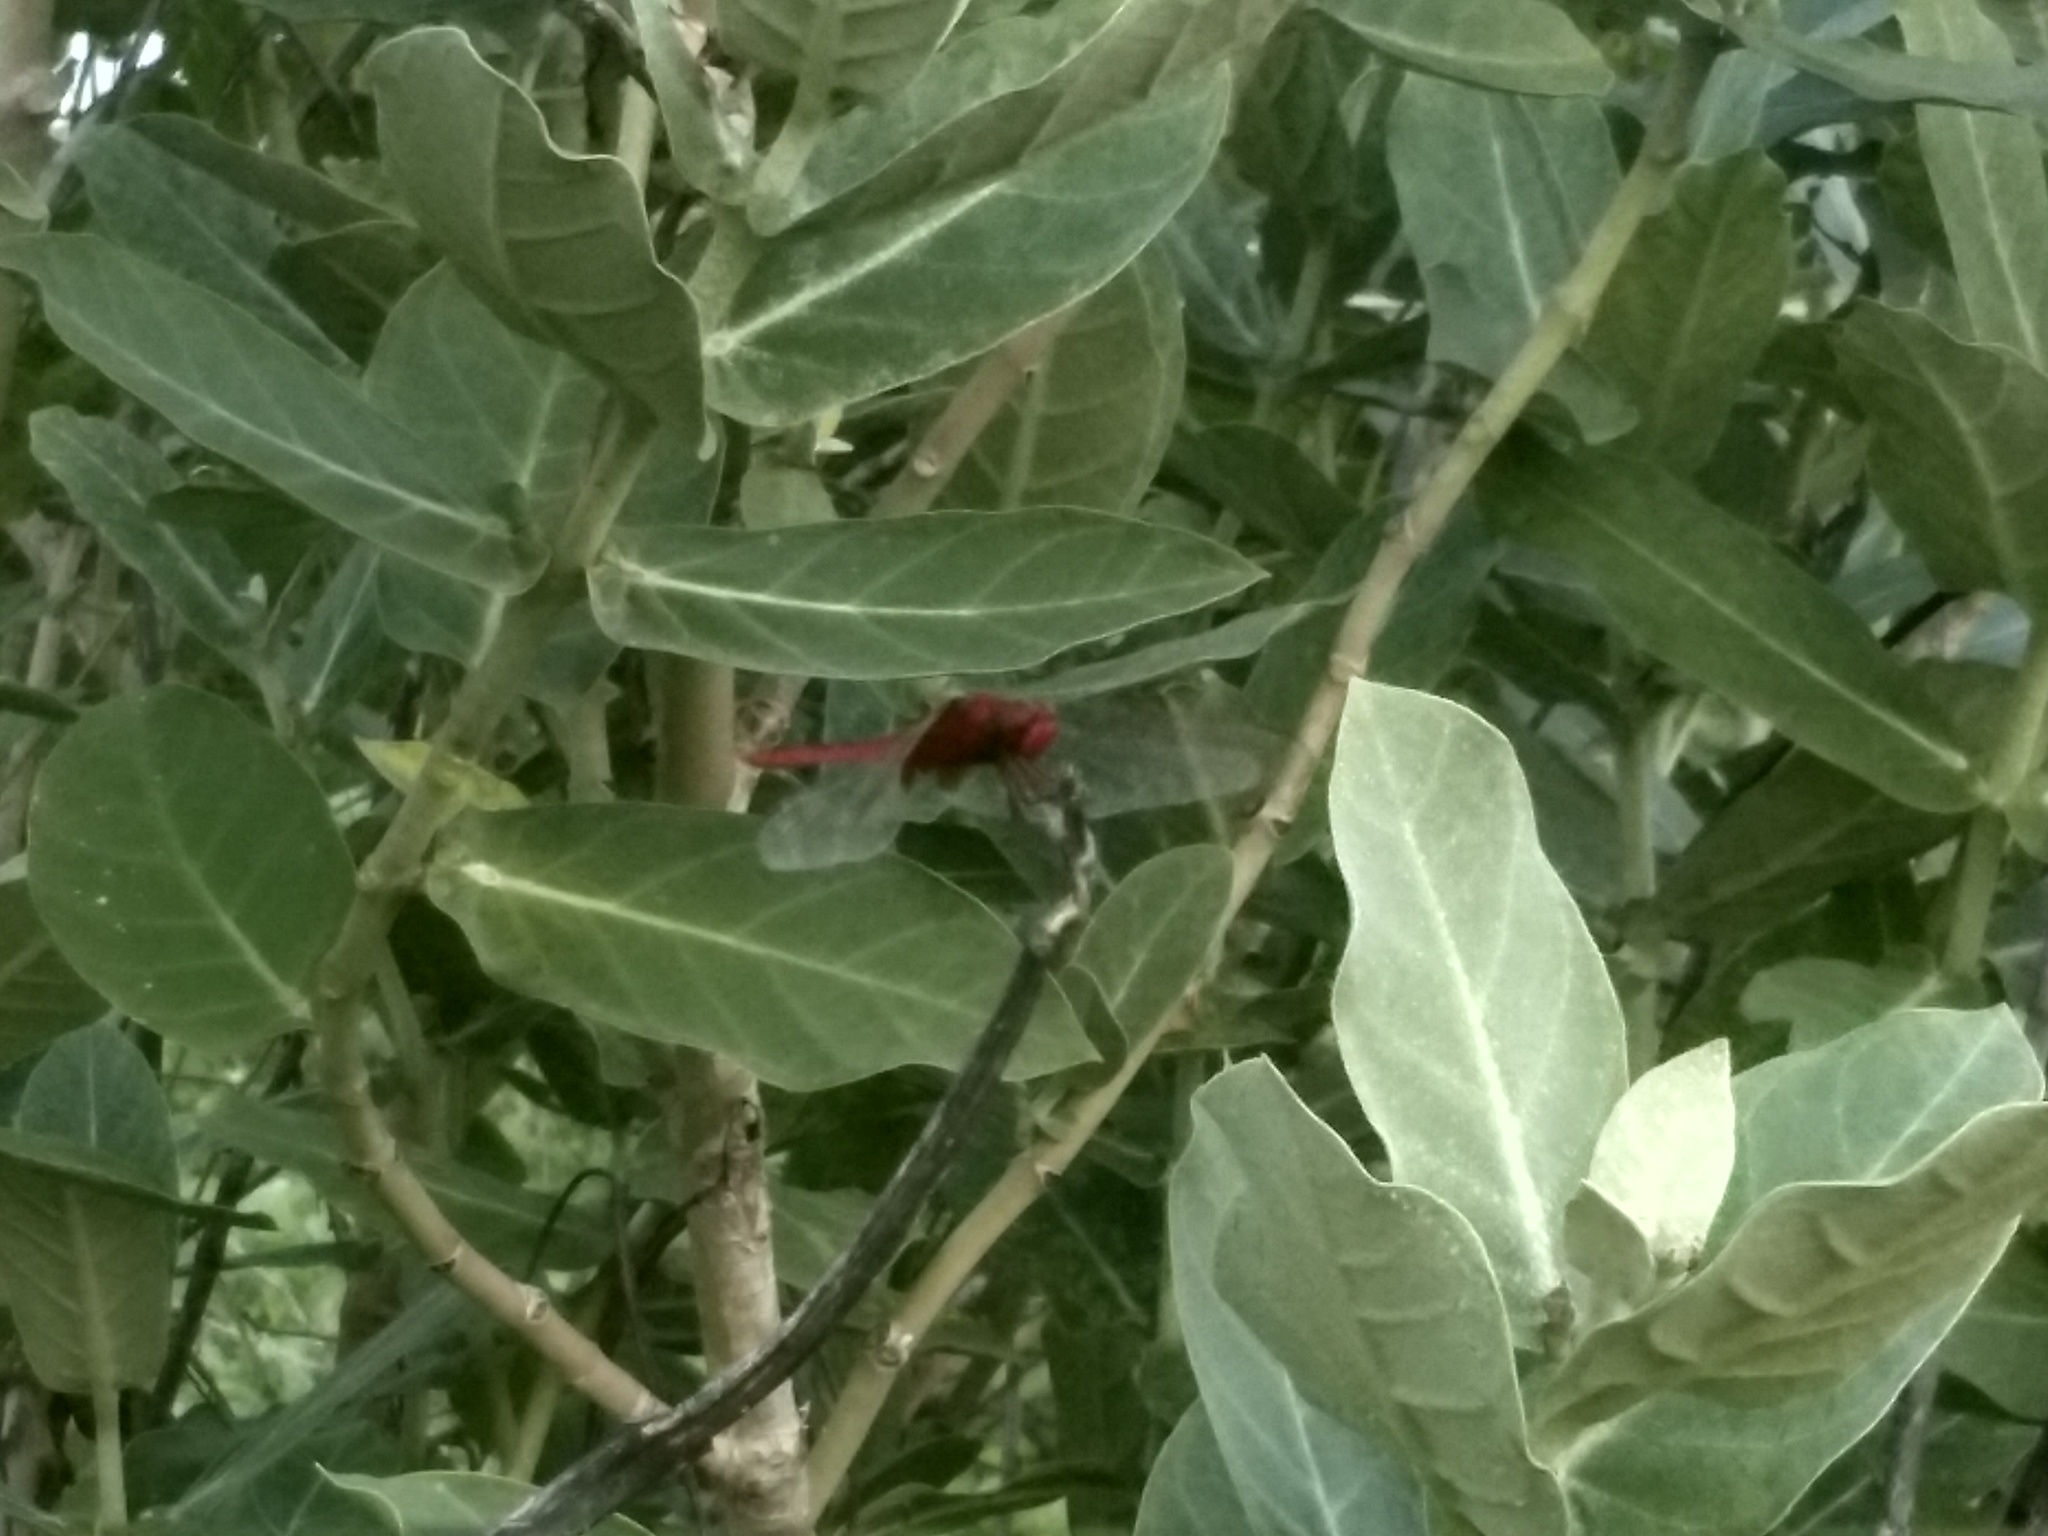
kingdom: Animalia
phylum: Arthropoda
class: Insecta
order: Odonata
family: Libellulidae
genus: Crocothemis
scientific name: Crocothemis servilia
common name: Scarlet skimmer
